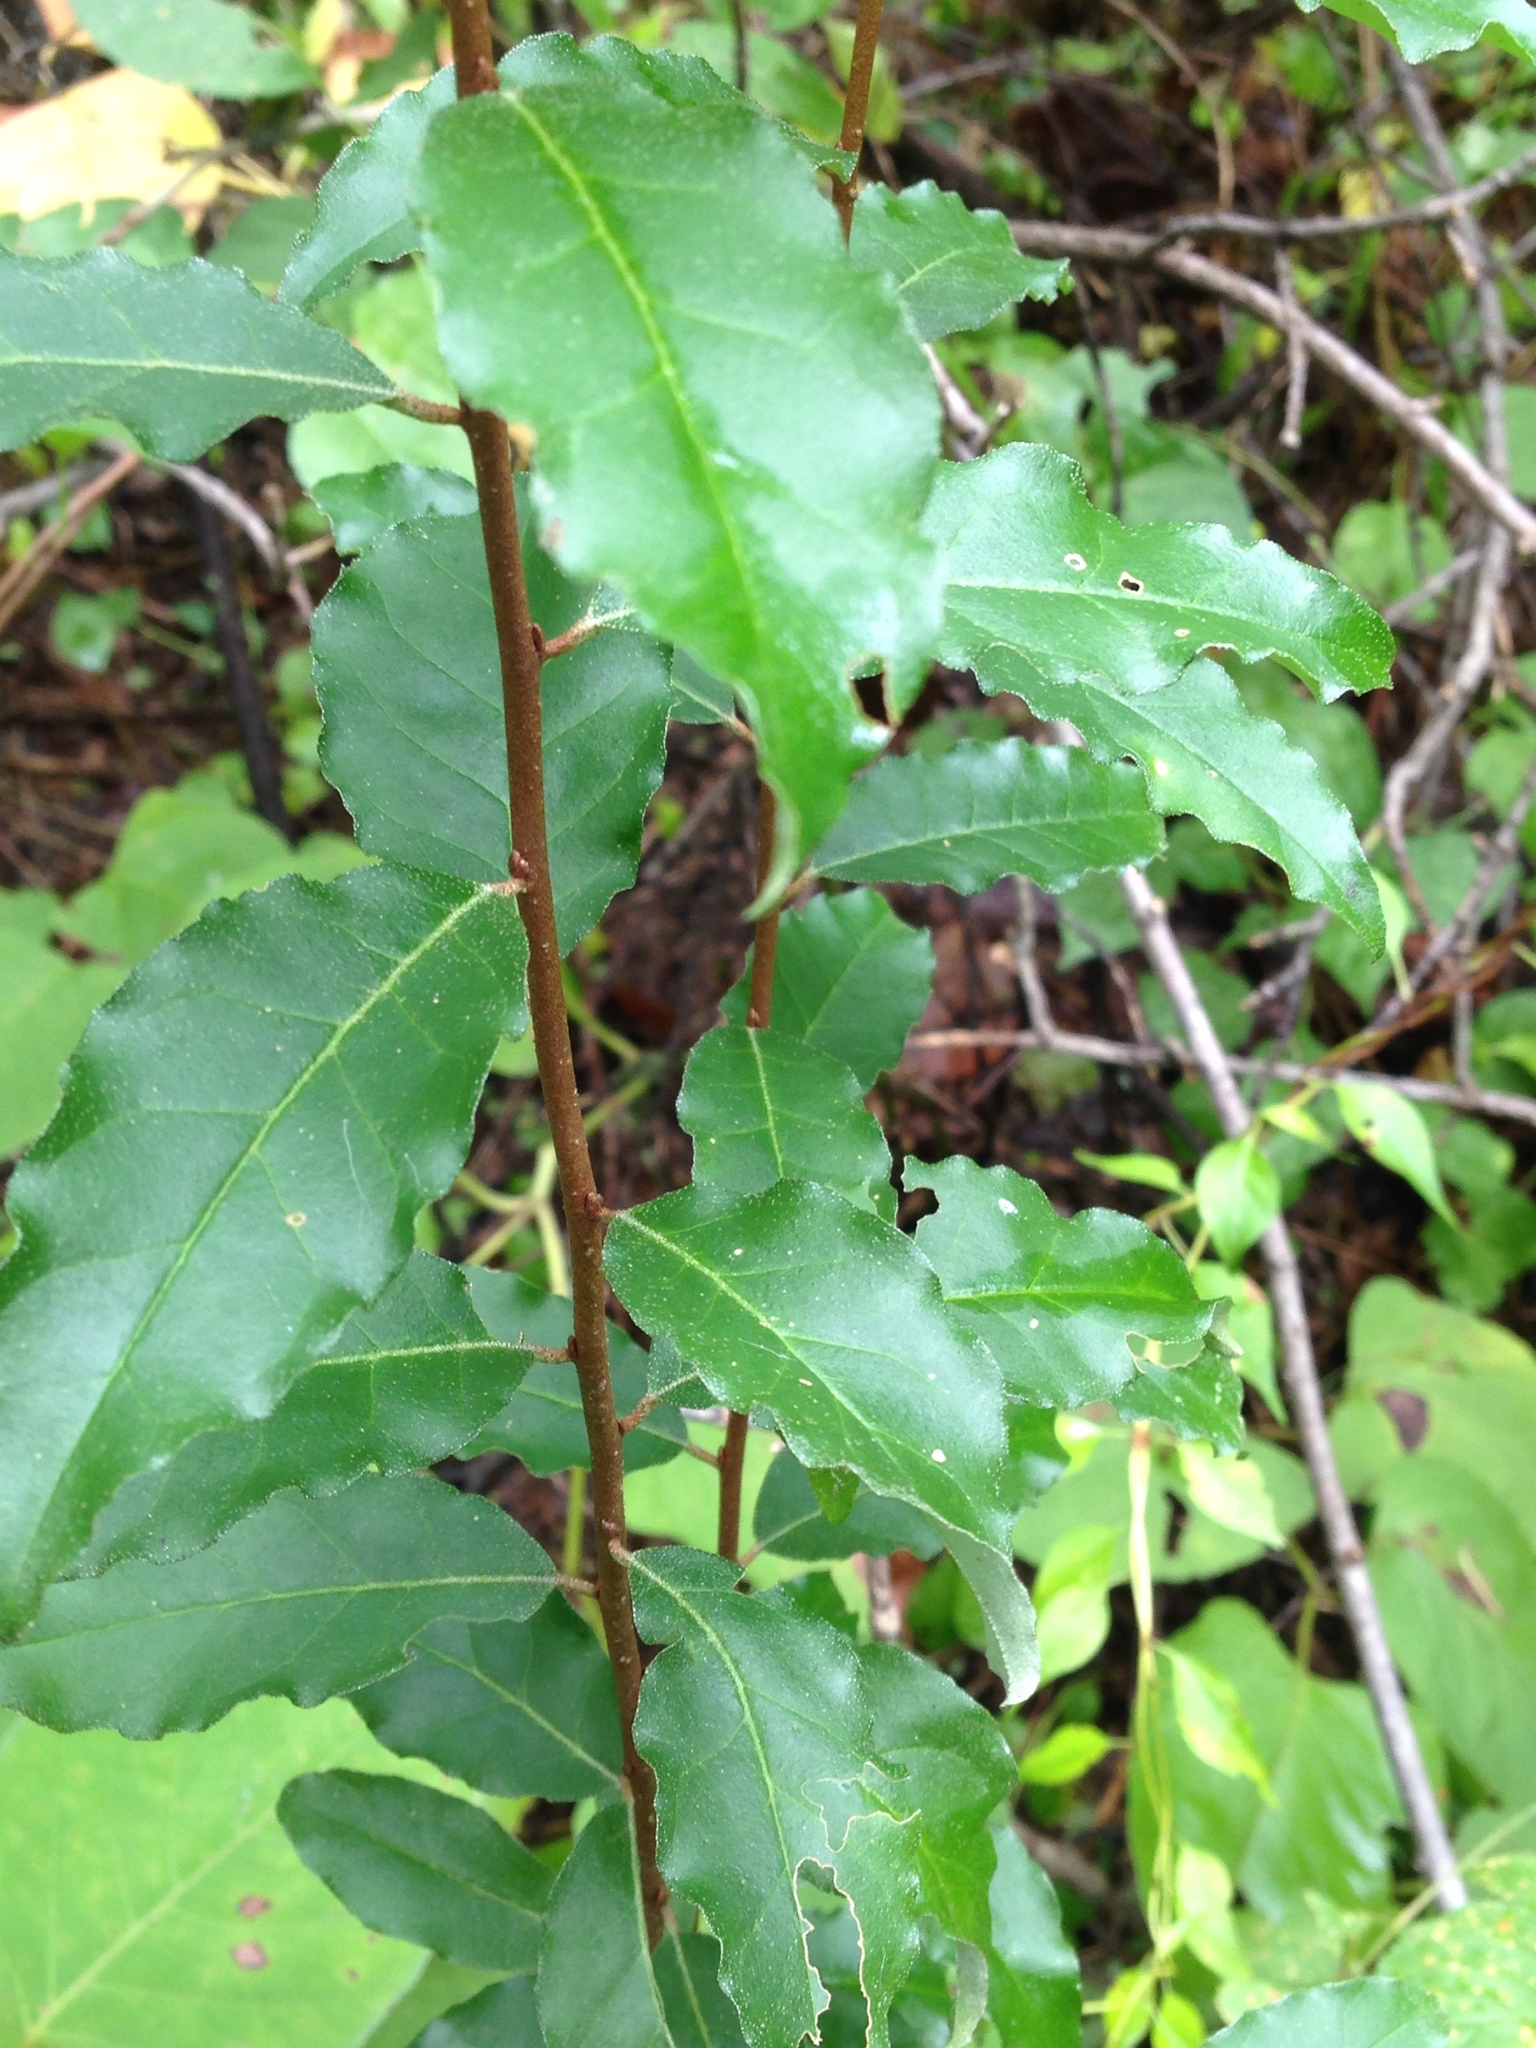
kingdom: Plantae
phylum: Tracheophyta
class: Magnoliopsida
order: Rosales
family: Elaeagnaceae
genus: Elaeagnus
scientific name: Elaeagnus umbellata
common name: Autumn olive
